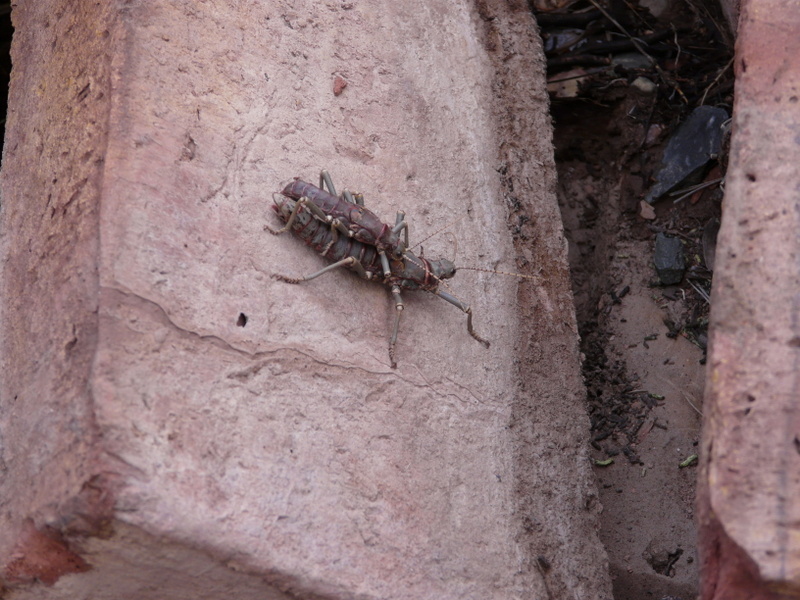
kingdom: Animalia
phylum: Arthropoda
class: Insecta
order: Phasmida
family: Agathemeridae
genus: Agathemera
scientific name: Agathemera luteola
